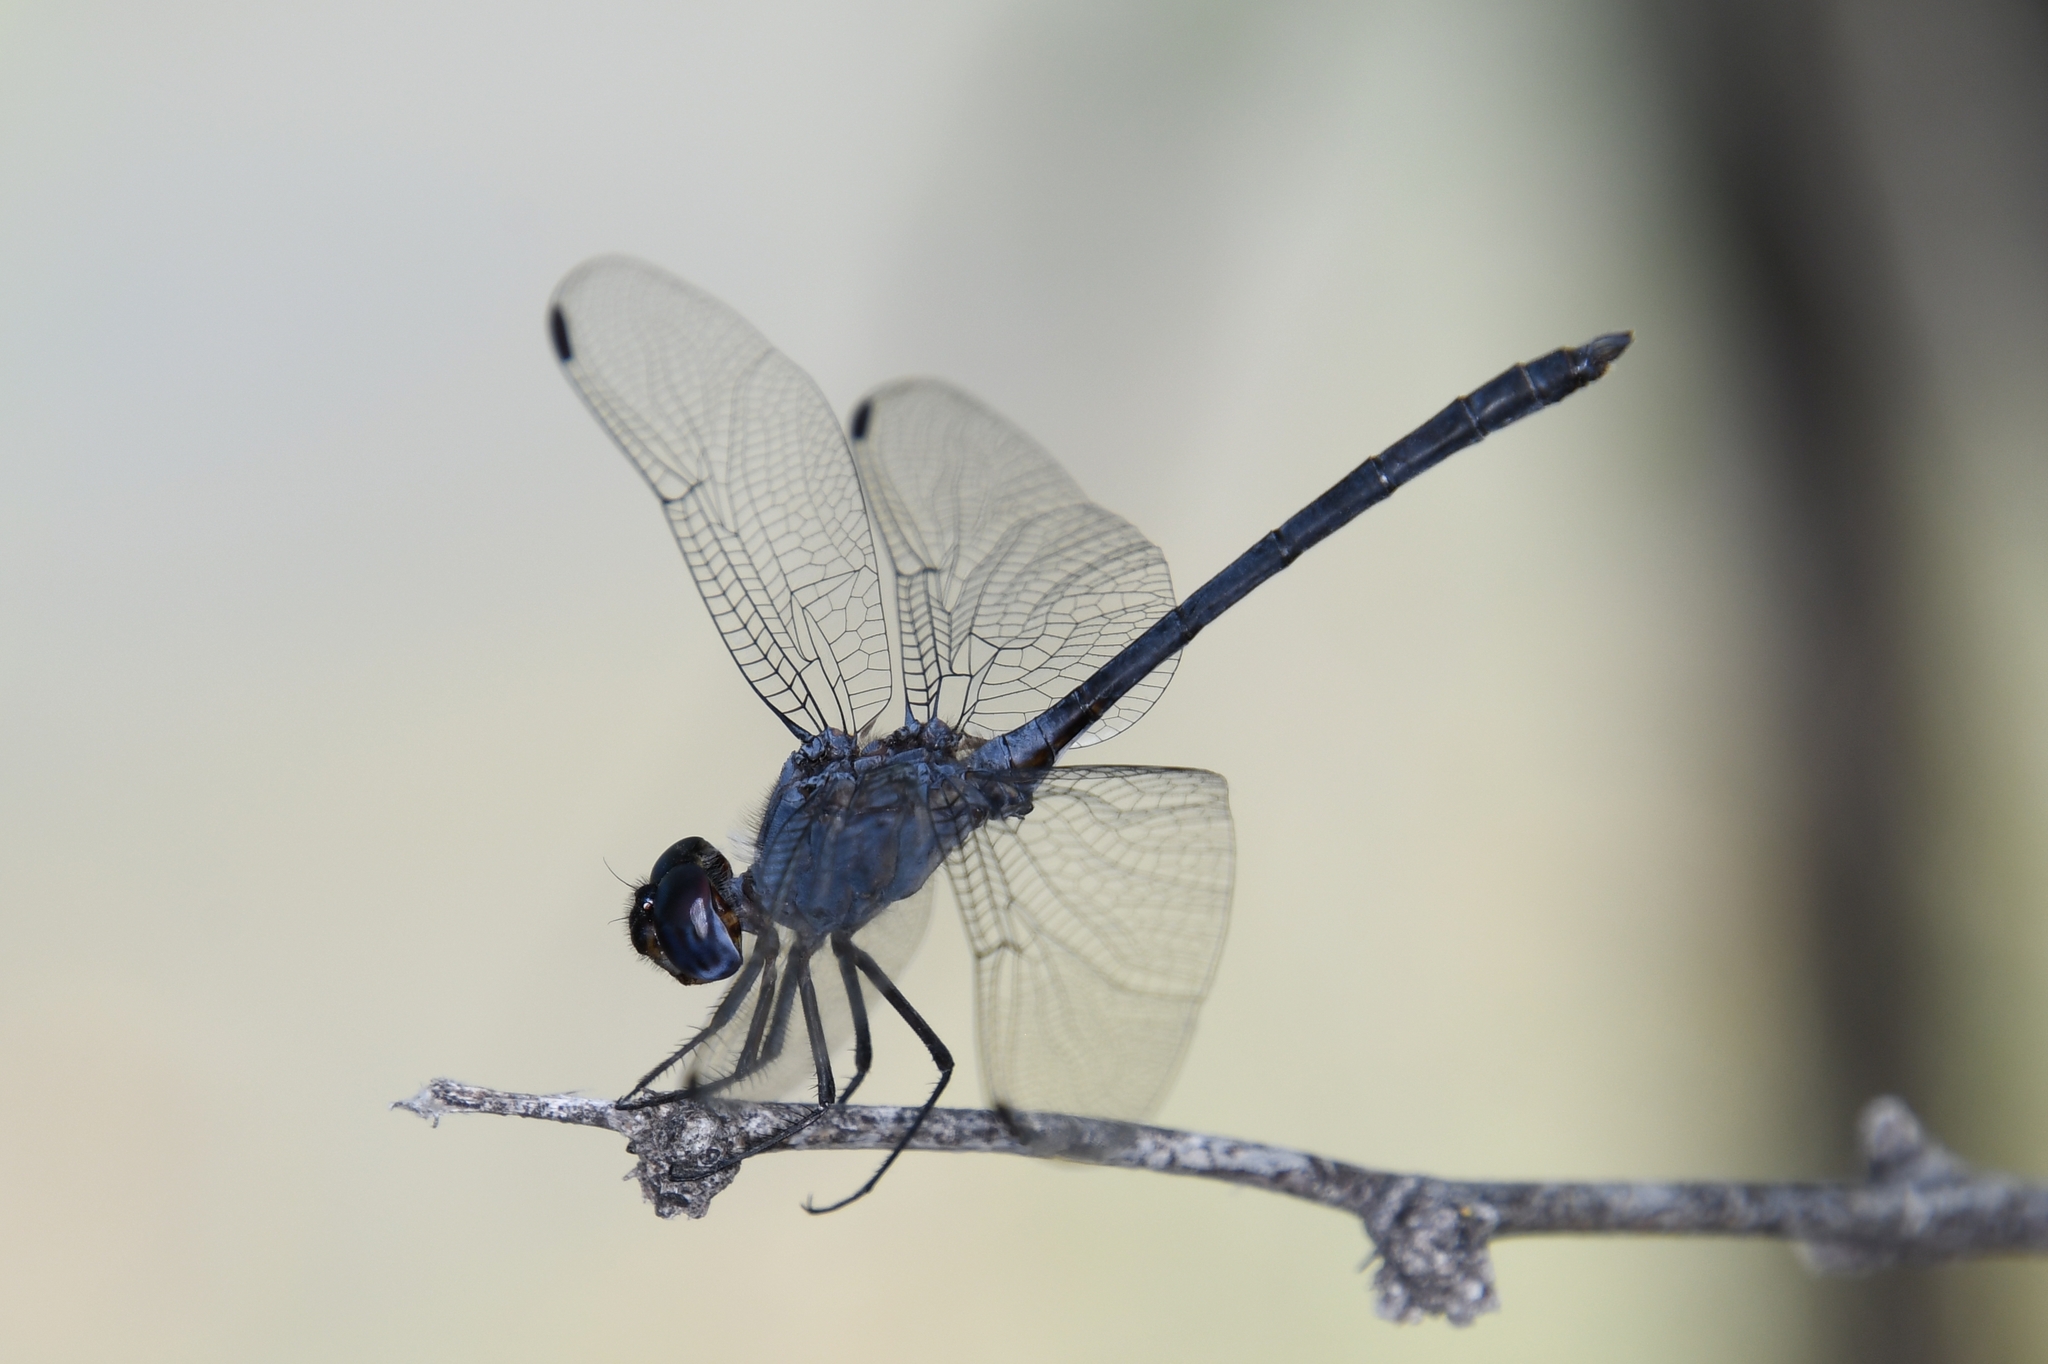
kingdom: Animalia
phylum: Arthropoda
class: Insecta
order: Odonata
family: Libellulidae
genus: Dythemis
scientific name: Dythemis nigrescens
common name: Black setwing
